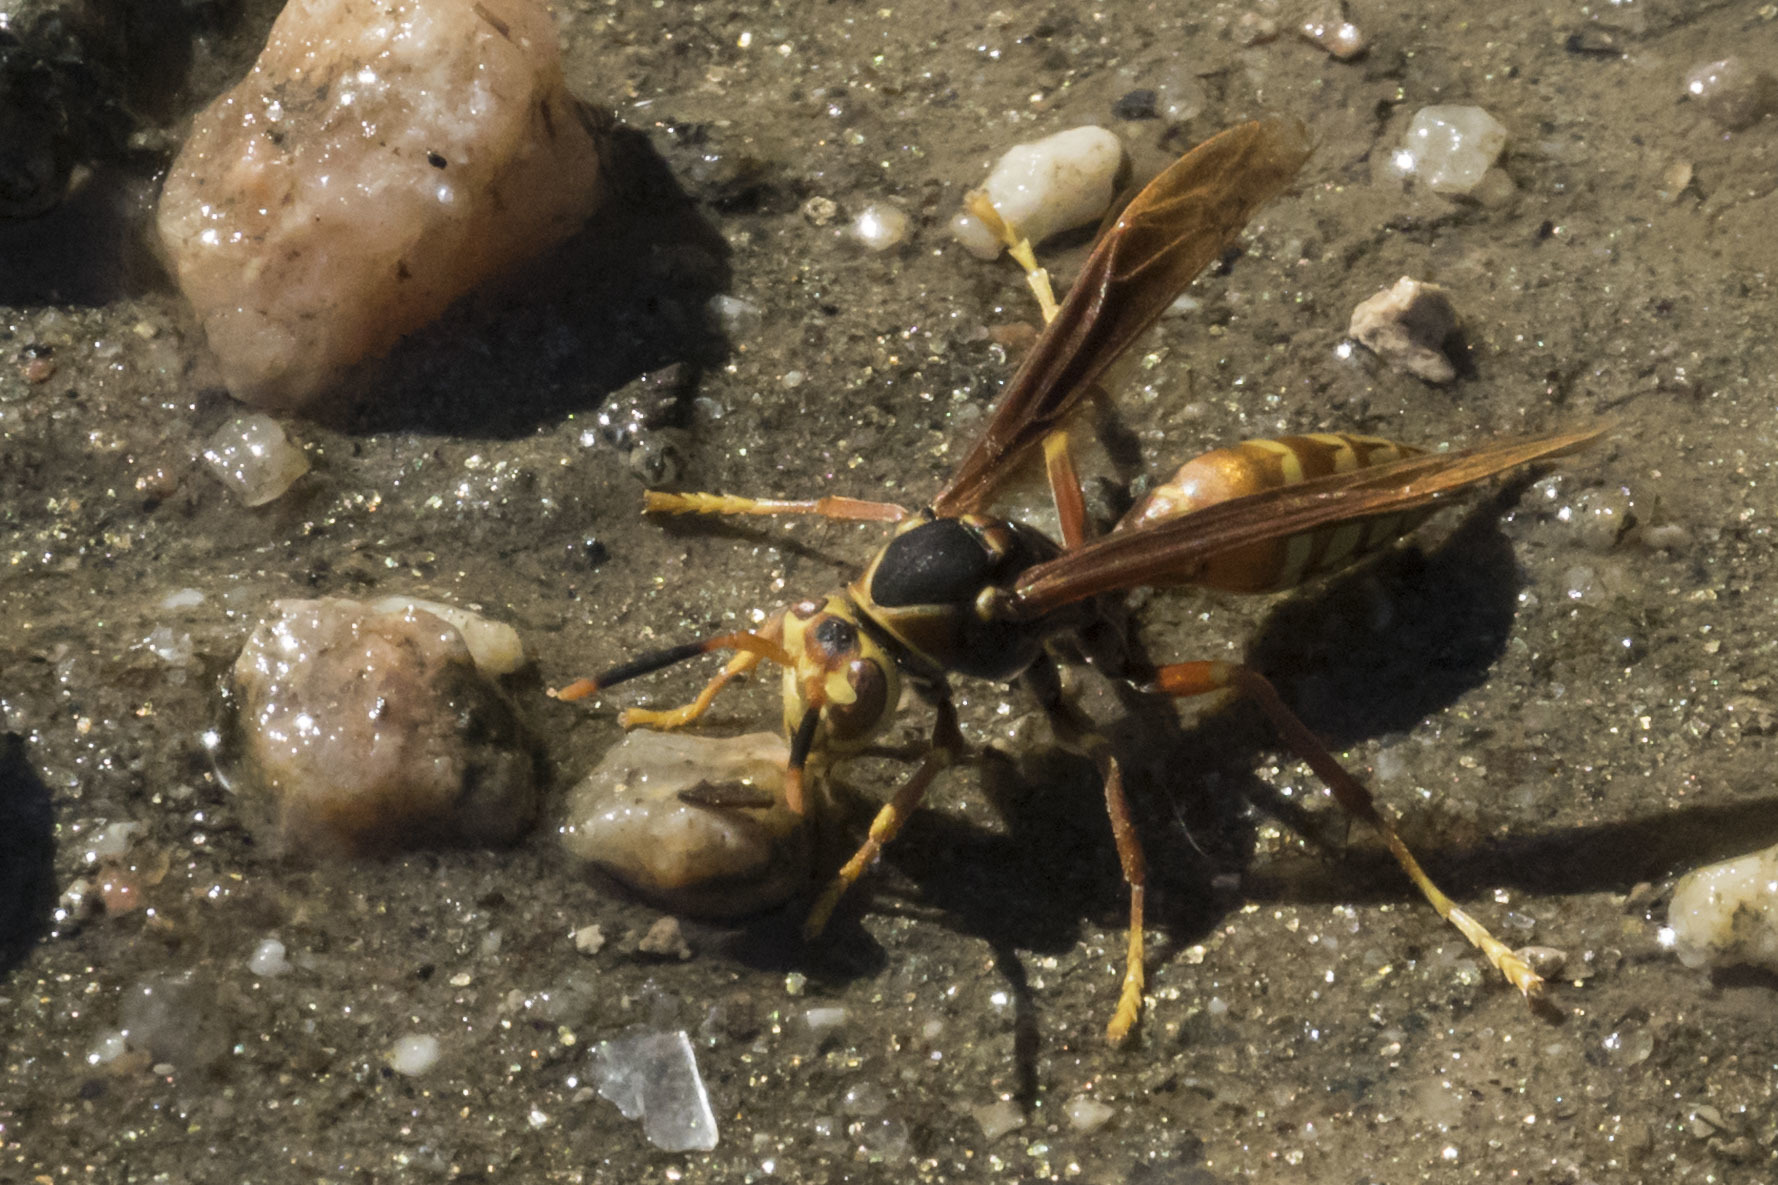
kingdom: Animalia
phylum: Arthropoda
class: Insecta
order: Hymenoptera
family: Eumenidae
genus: Polistes
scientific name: Polistes buyssoni
